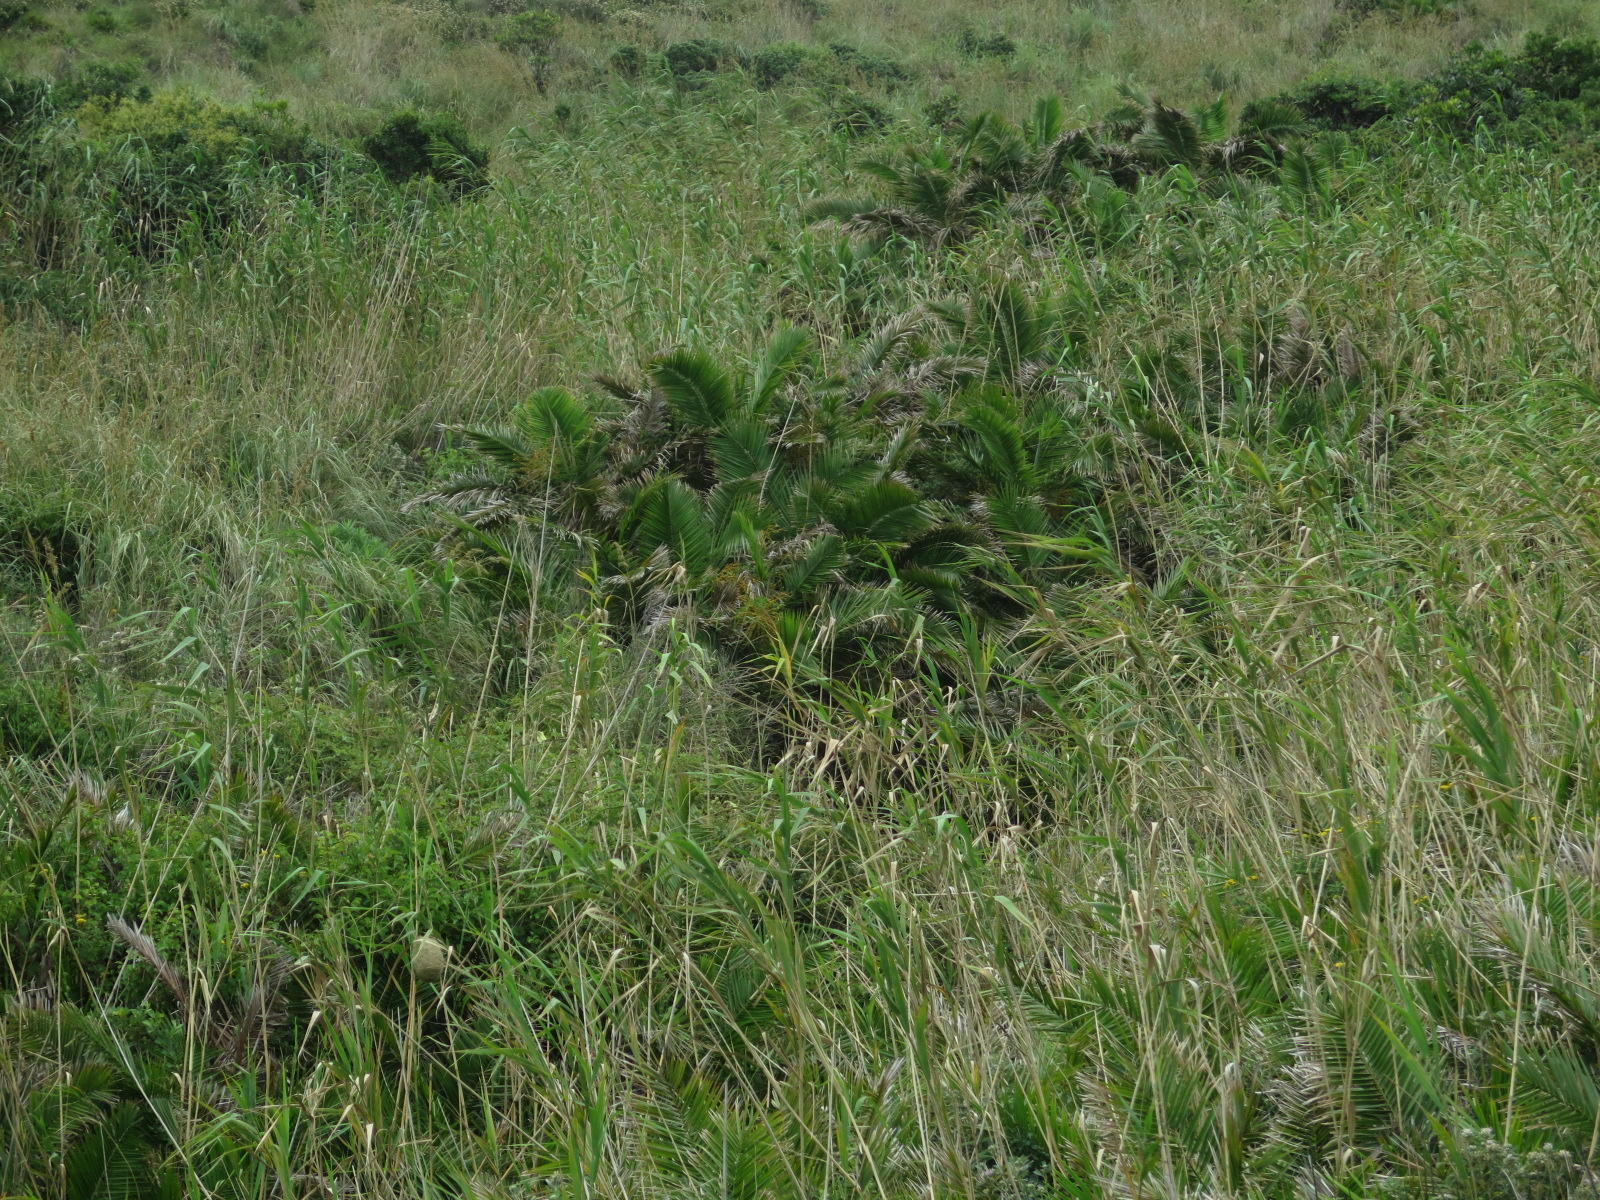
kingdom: Plantae
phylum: Tracheophyta
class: Liliopsida
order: Arecales
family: Arecaceae
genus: Phoenix
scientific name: Phoenix reclinata
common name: Senegal date palm
